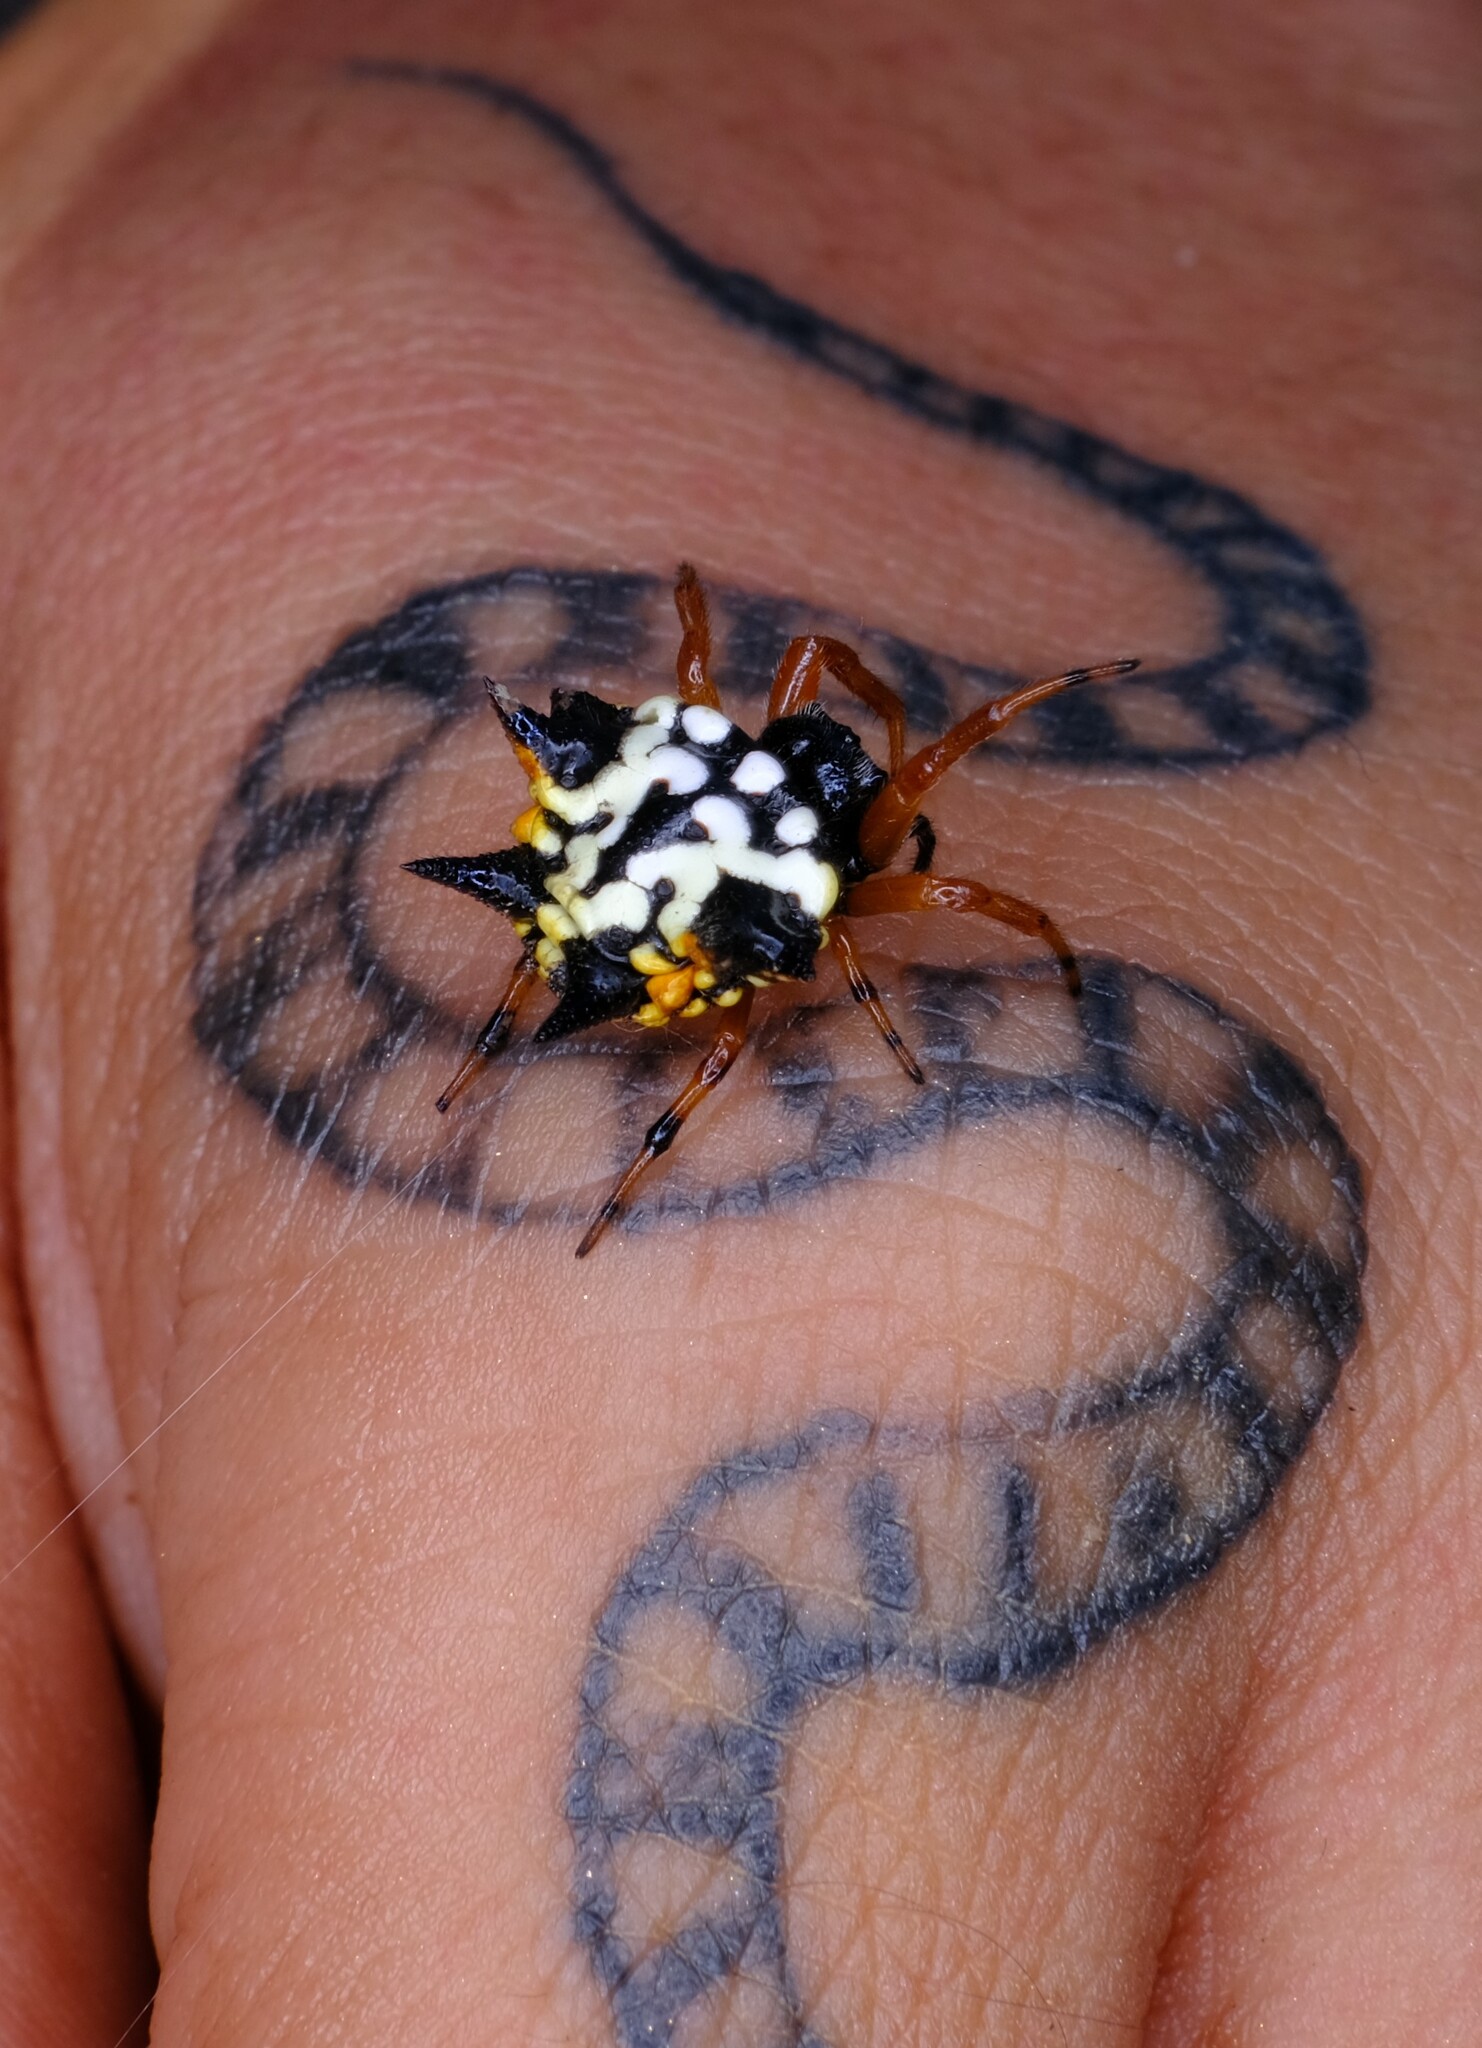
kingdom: Animalia
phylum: Arthropoda
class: Arachnida
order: Araneae
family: Araneidae
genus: Austracantha
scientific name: Austracantha minax
